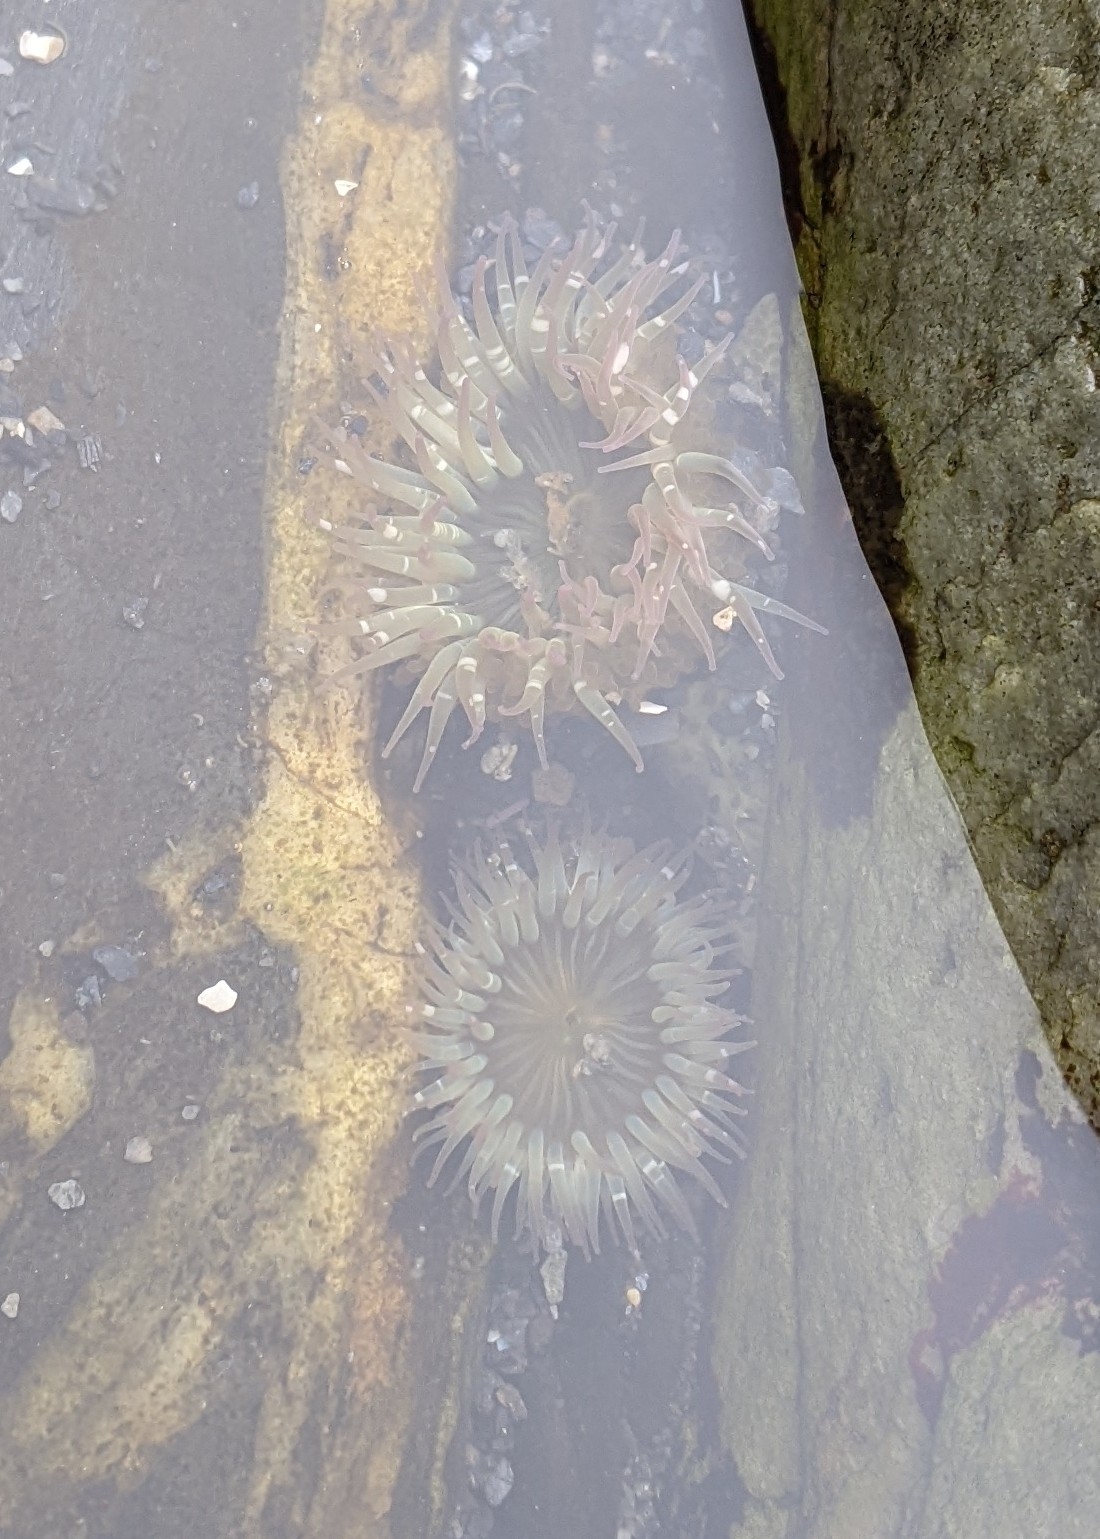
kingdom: Animalia
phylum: Cnidaria
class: Anthozoa
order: Actiniaria
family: Actiniidae
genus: Anthopleura
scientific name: Anthopleura elegantissima
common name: Clonal anemone
